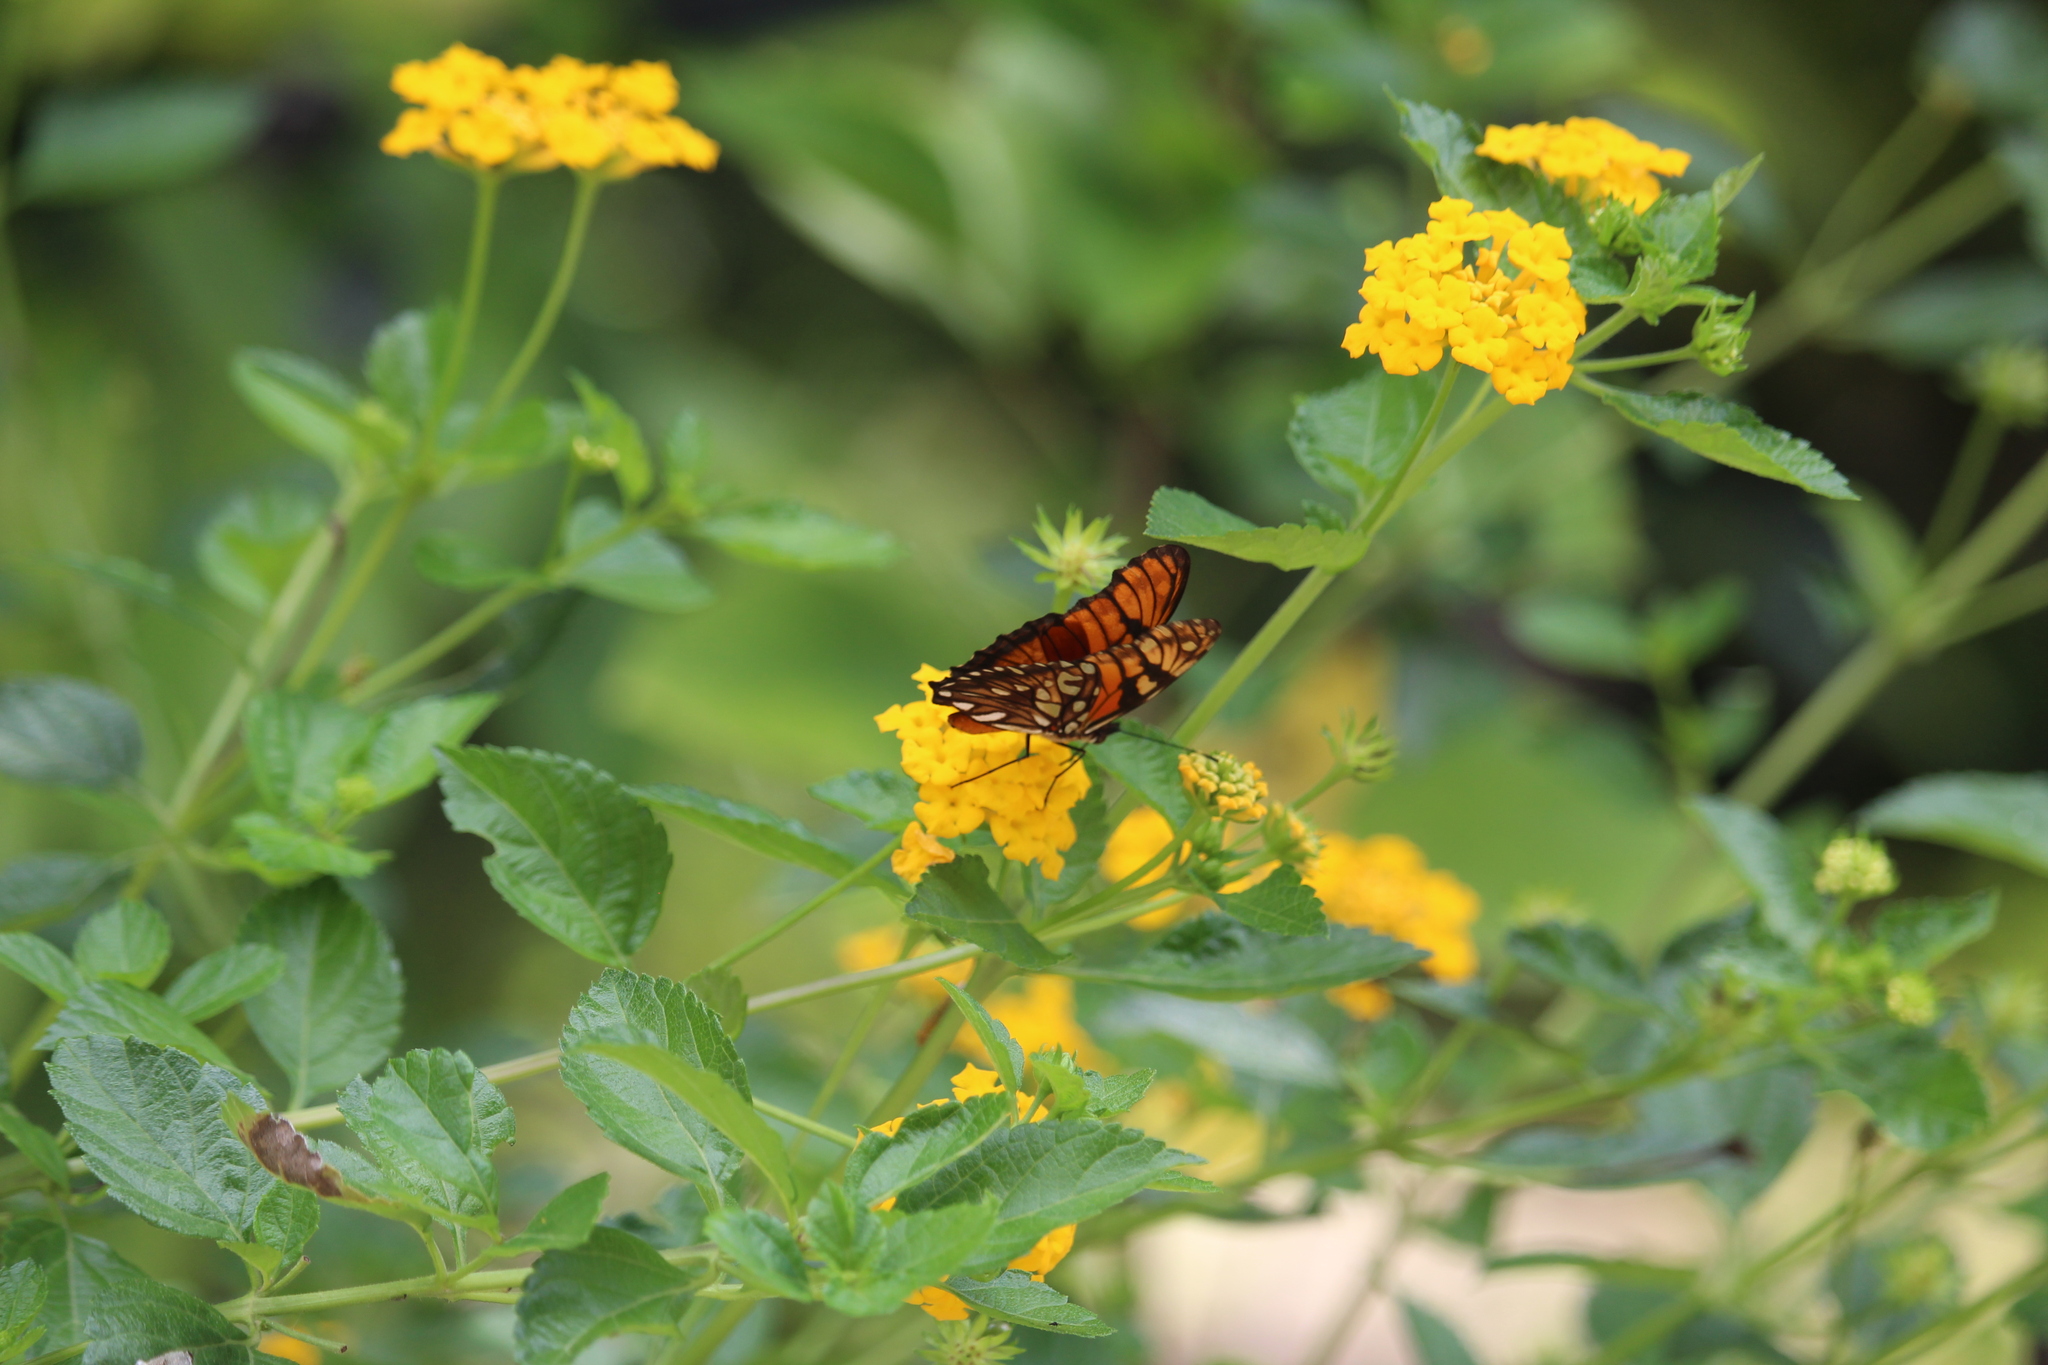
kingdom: Animalia
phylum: Arthropoda
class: Insecta
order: Lepidoptera
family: Nymphalidae
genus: Dione
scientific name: Dione juno
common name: Juno silverspot
